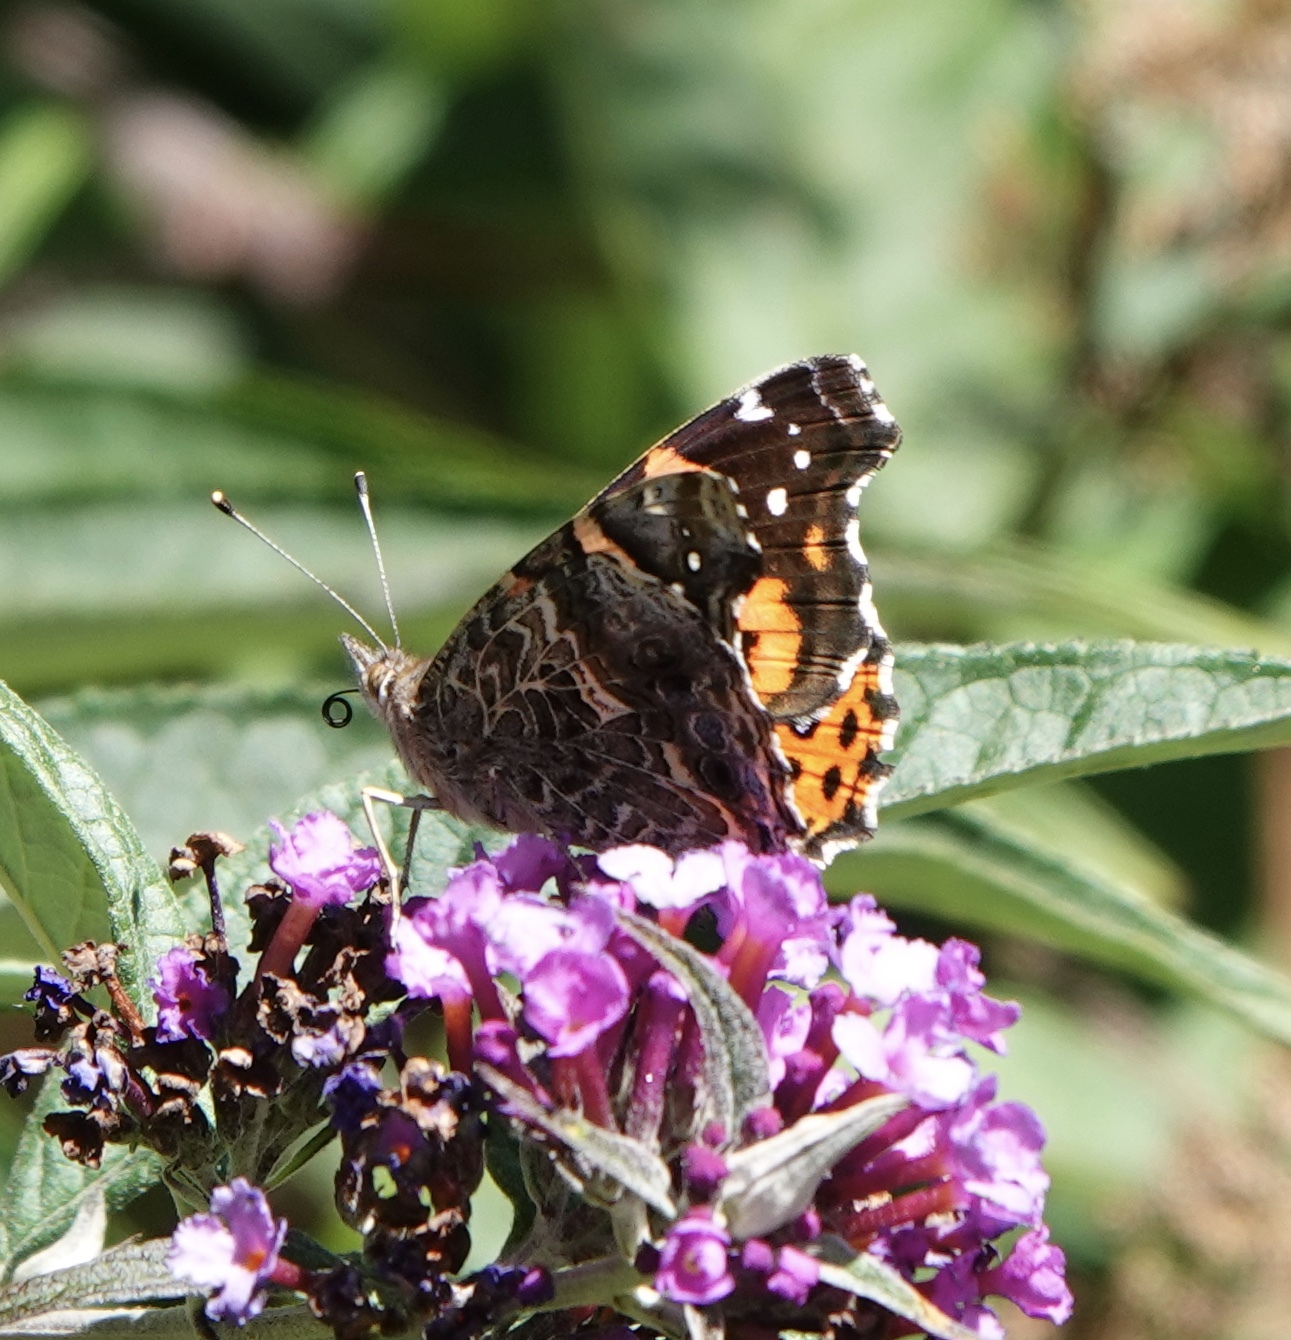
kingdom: Animalia
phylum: Arthropoda
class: Insecta
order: Lepidoptera
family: Nymphalidae
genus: Vanessa
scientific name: Vanessa carye
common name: Subtropical lady
